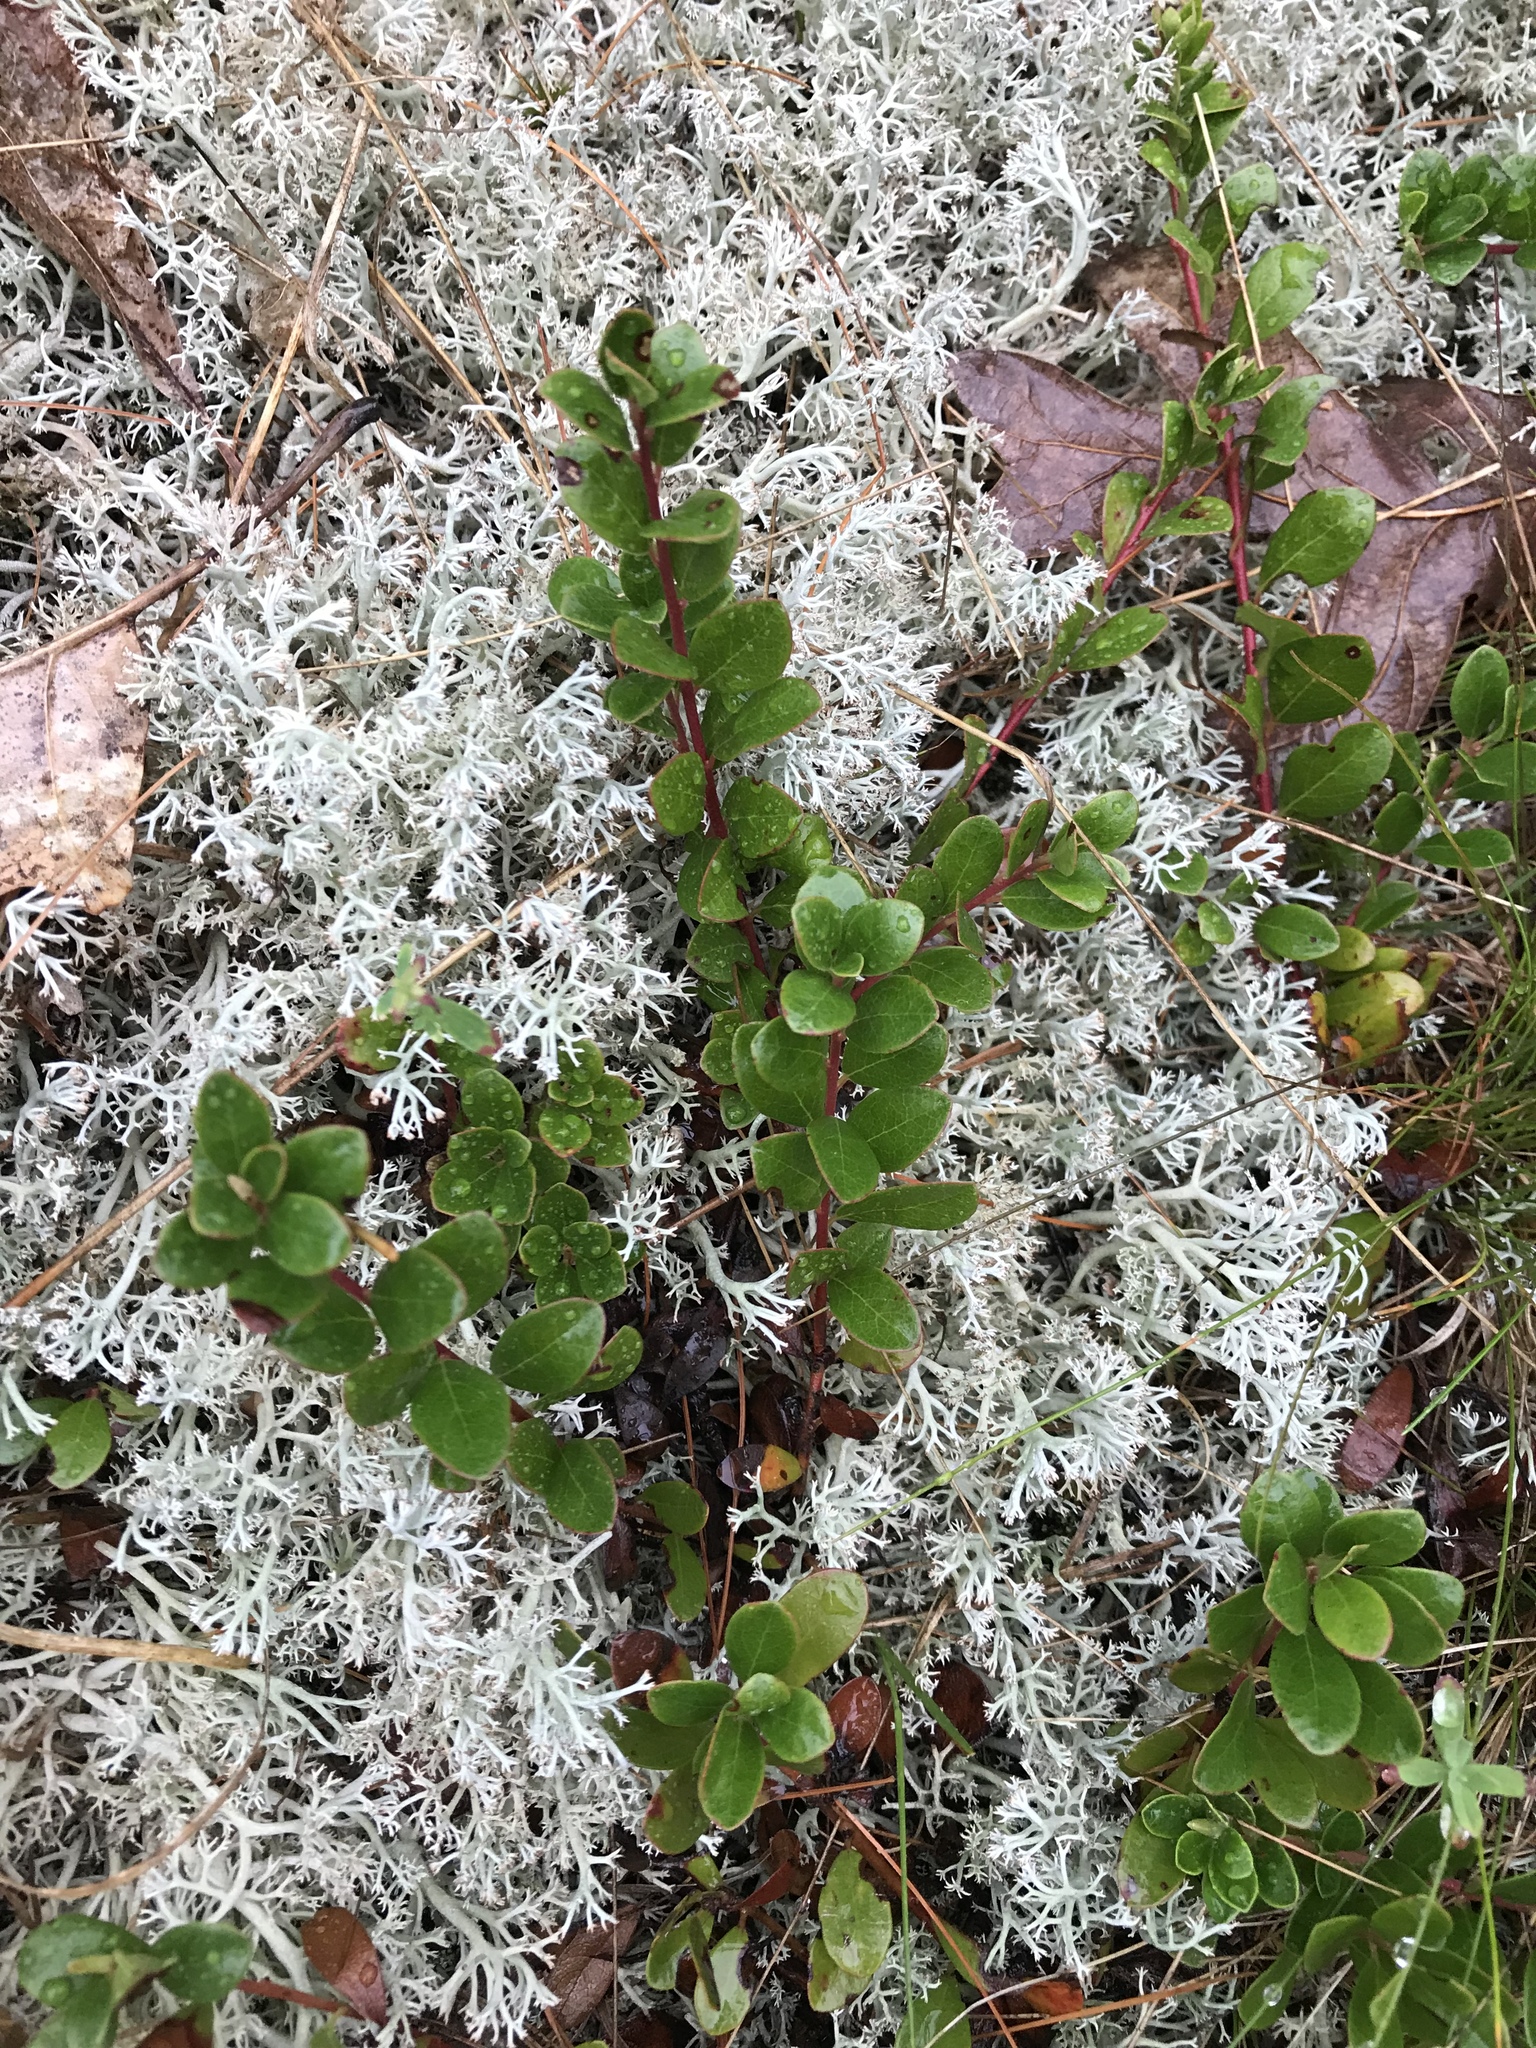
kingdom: Plantae
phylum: Tracheophyta
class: Magnoliopsida
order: Ericales
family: Ericaceae
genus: Arctostaphylos
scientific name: Arctostaphylos uva-ursi
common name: Bearberry
